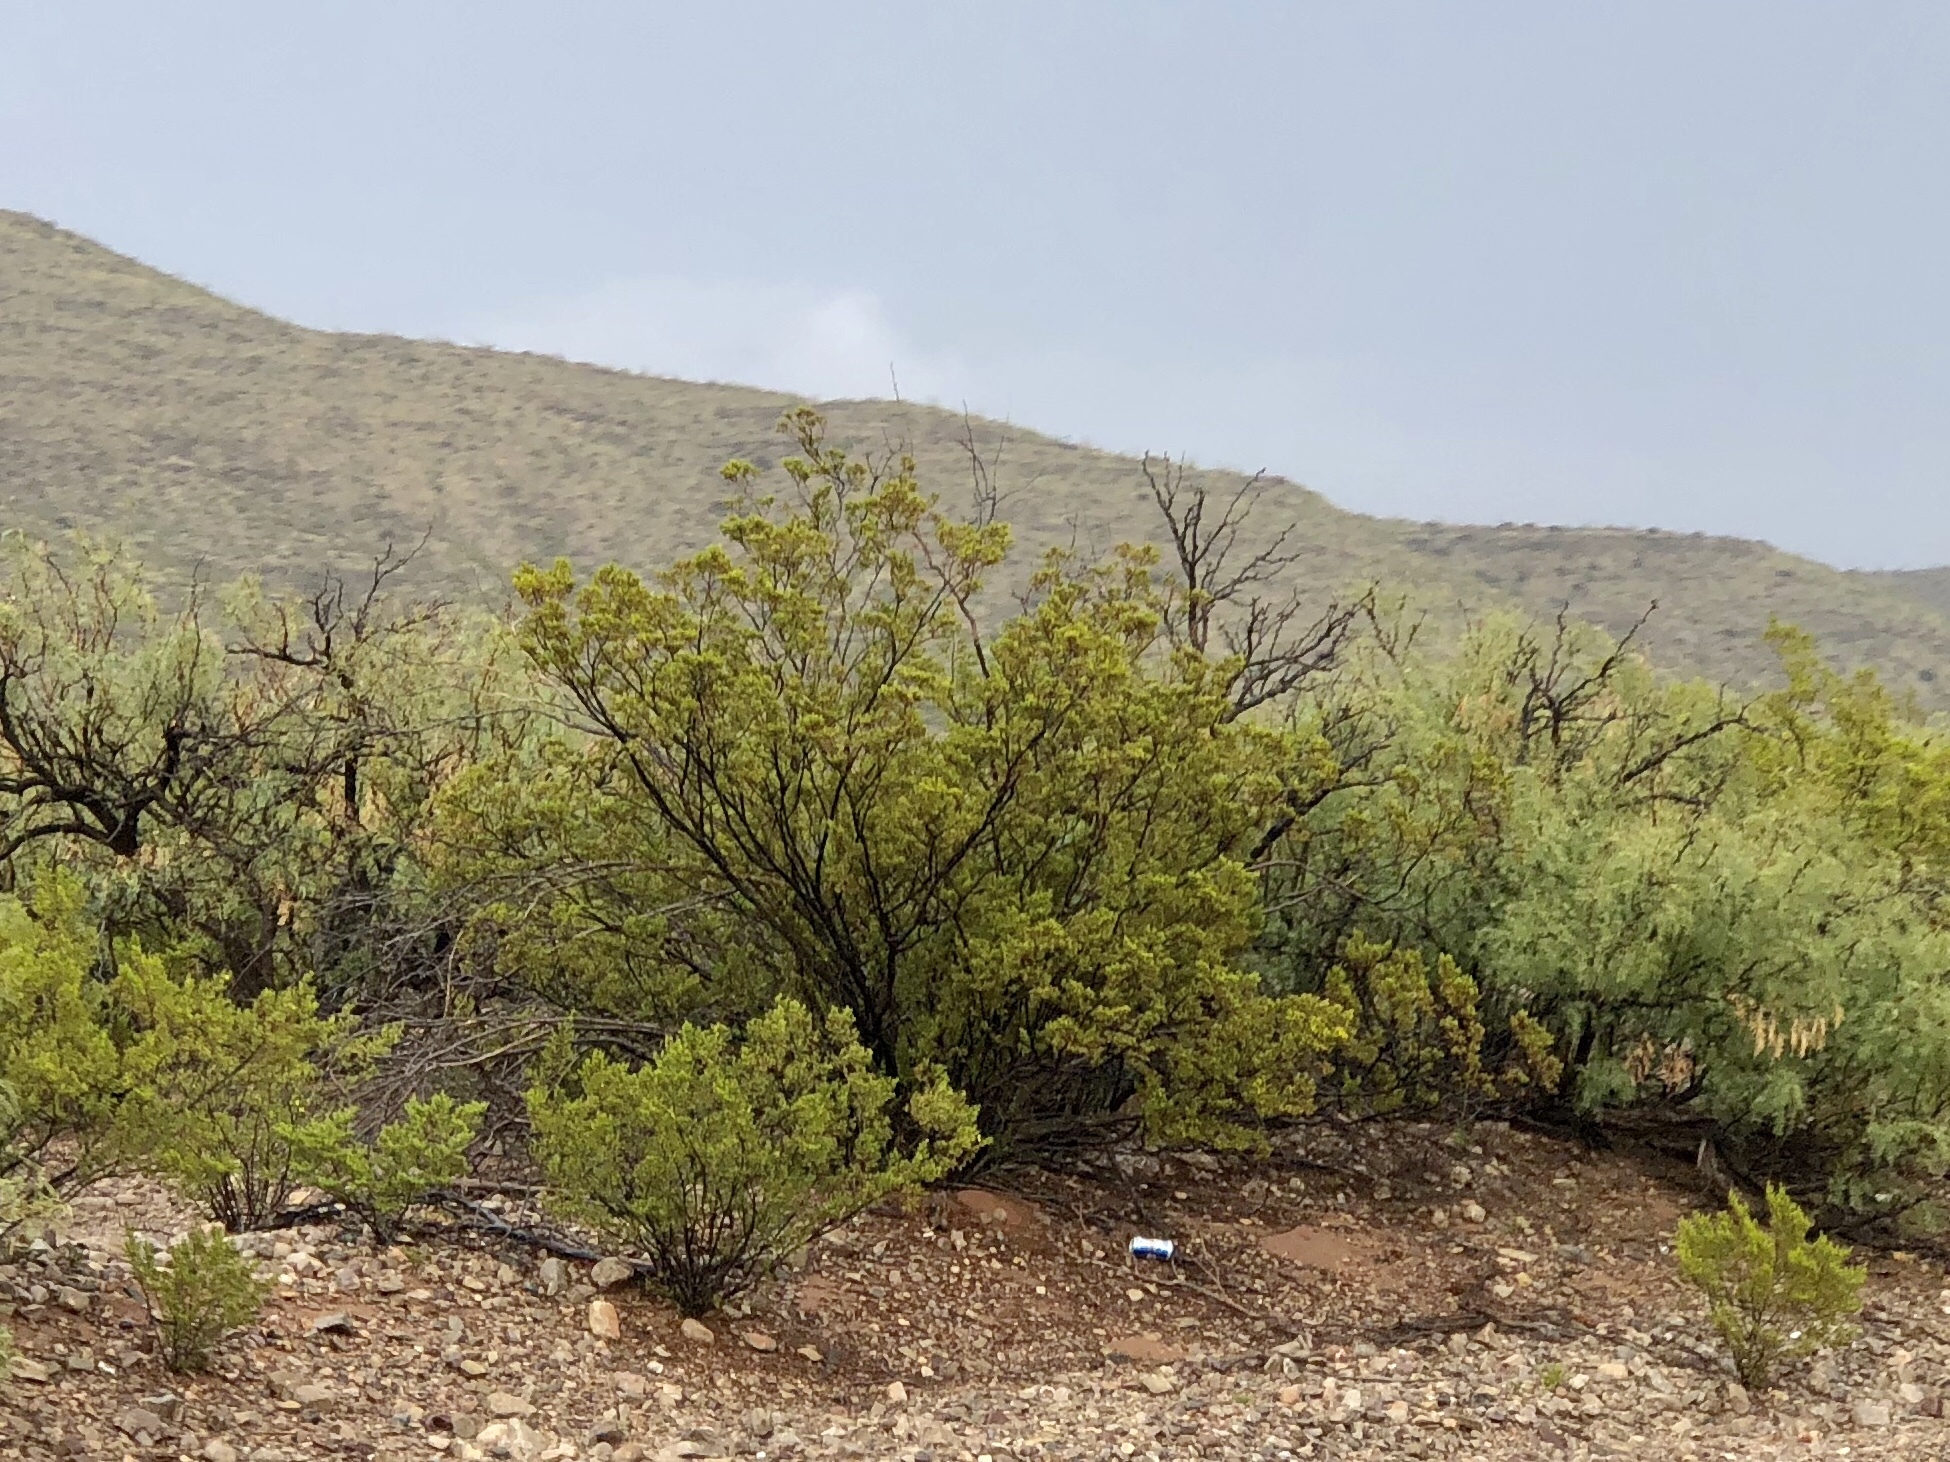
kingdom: Plantae
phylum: Tracheophyta
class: Magnoliopsida
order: Zygophyllales
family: Zygophyllaceae
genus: Larrea
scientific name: Larrea tridentata
